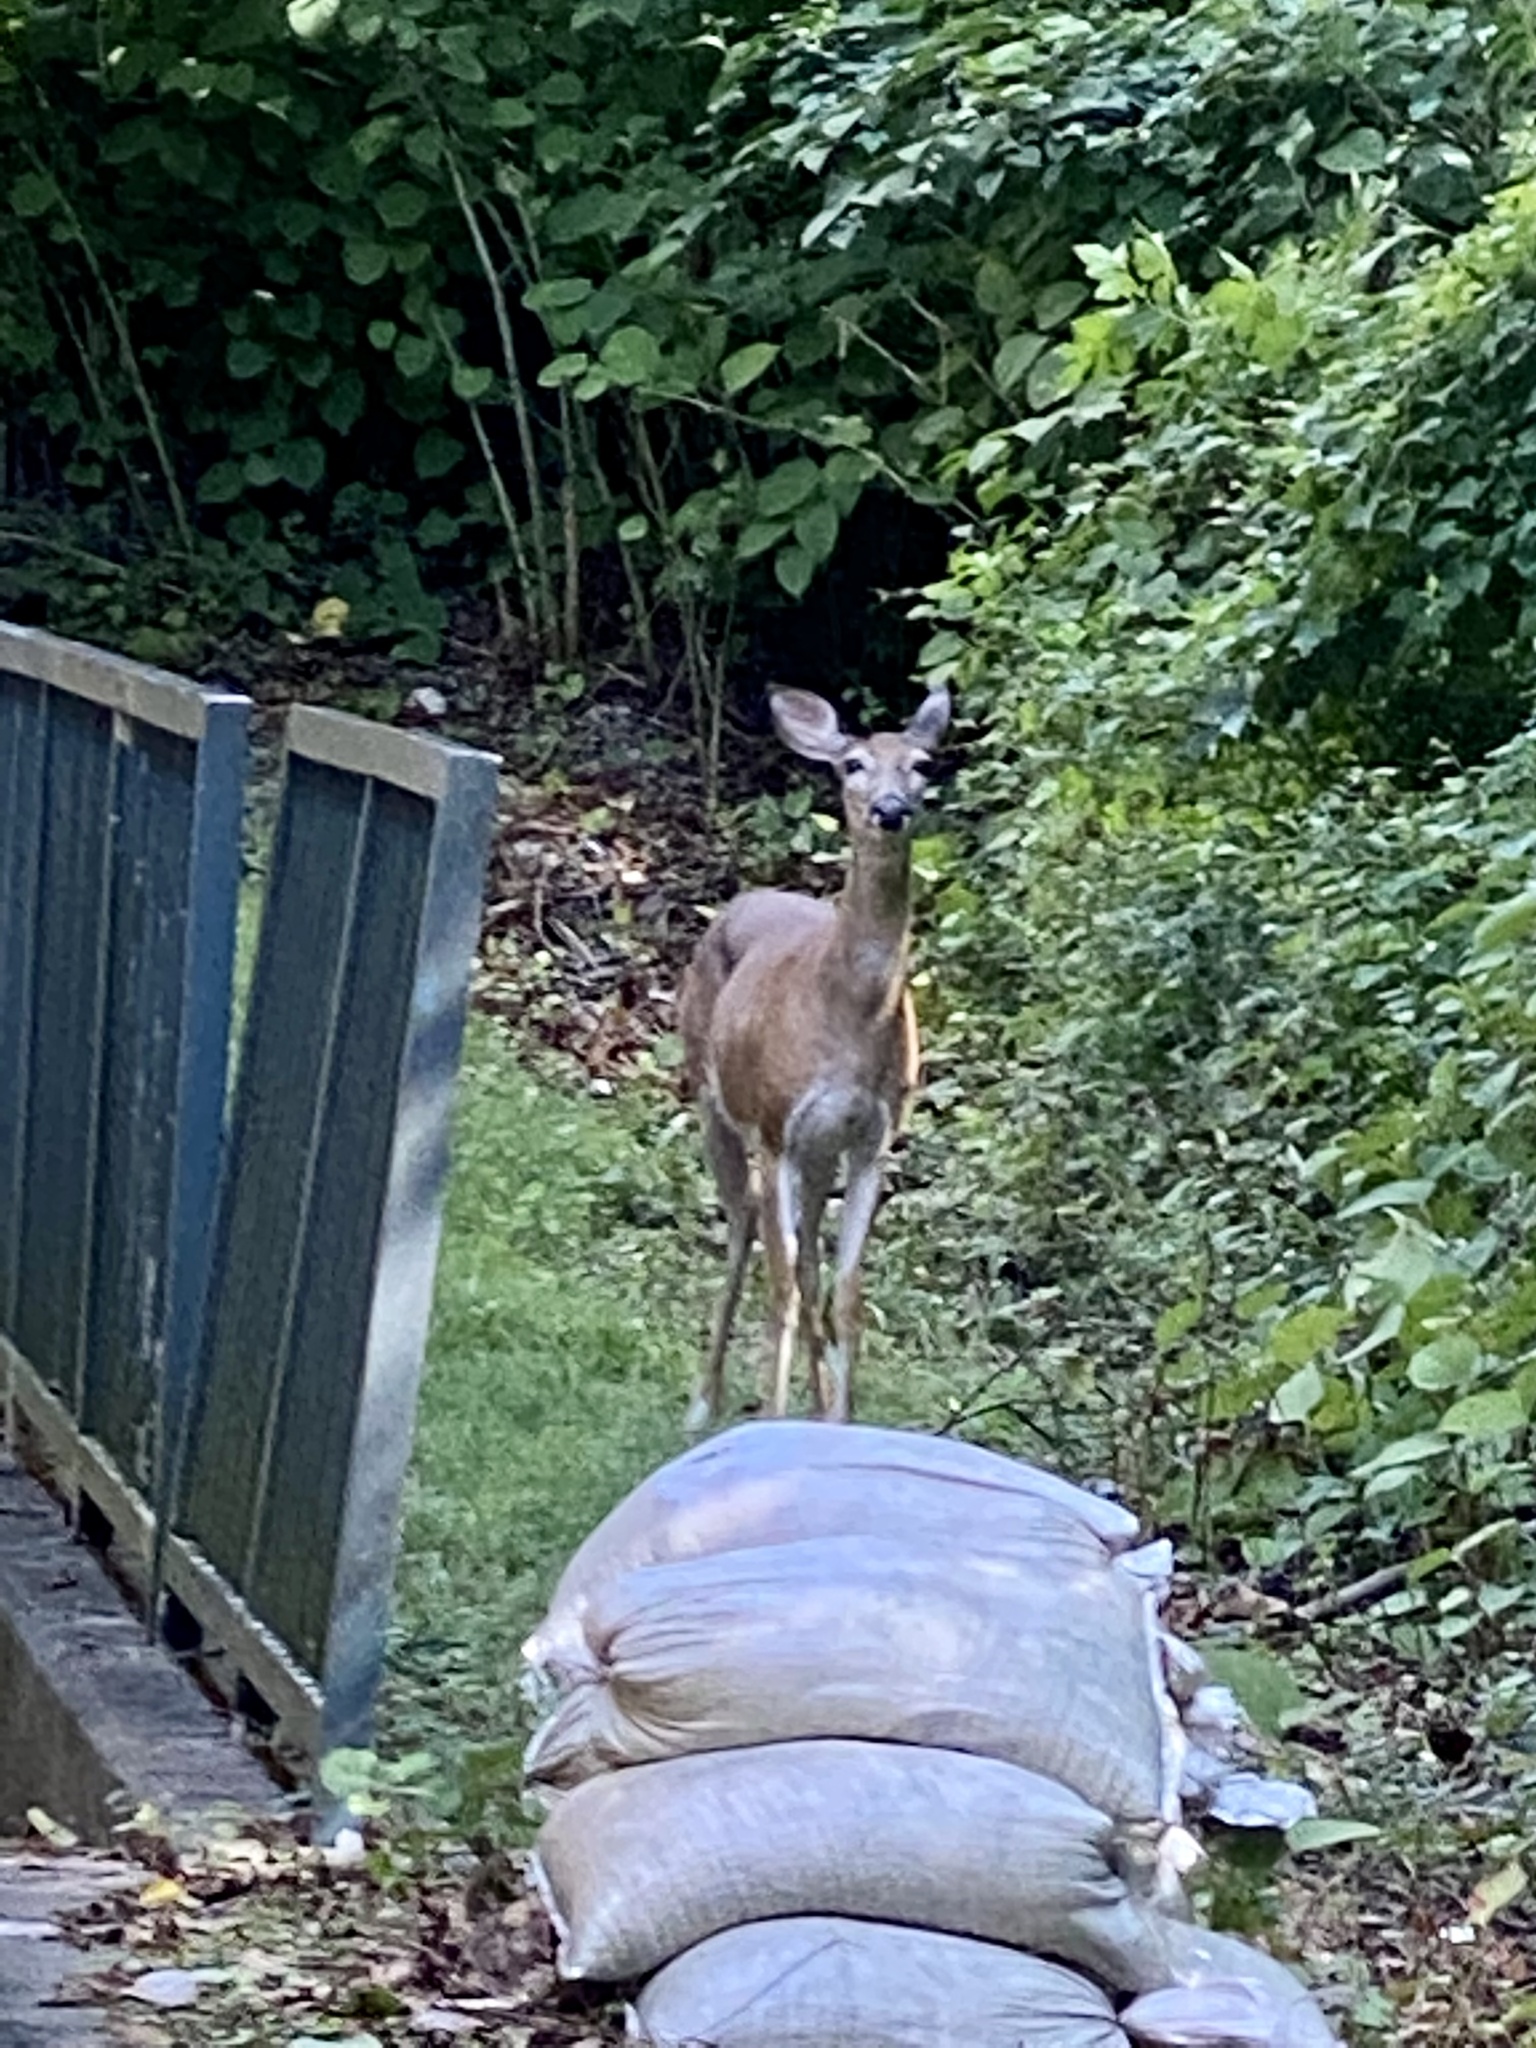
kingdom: Animalia
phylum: Chordata
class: Mammalia
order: Artiodactyla
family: Cervidae
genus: Odocoileus
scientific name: Odocoileus virginianus
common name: White-tailed deer
